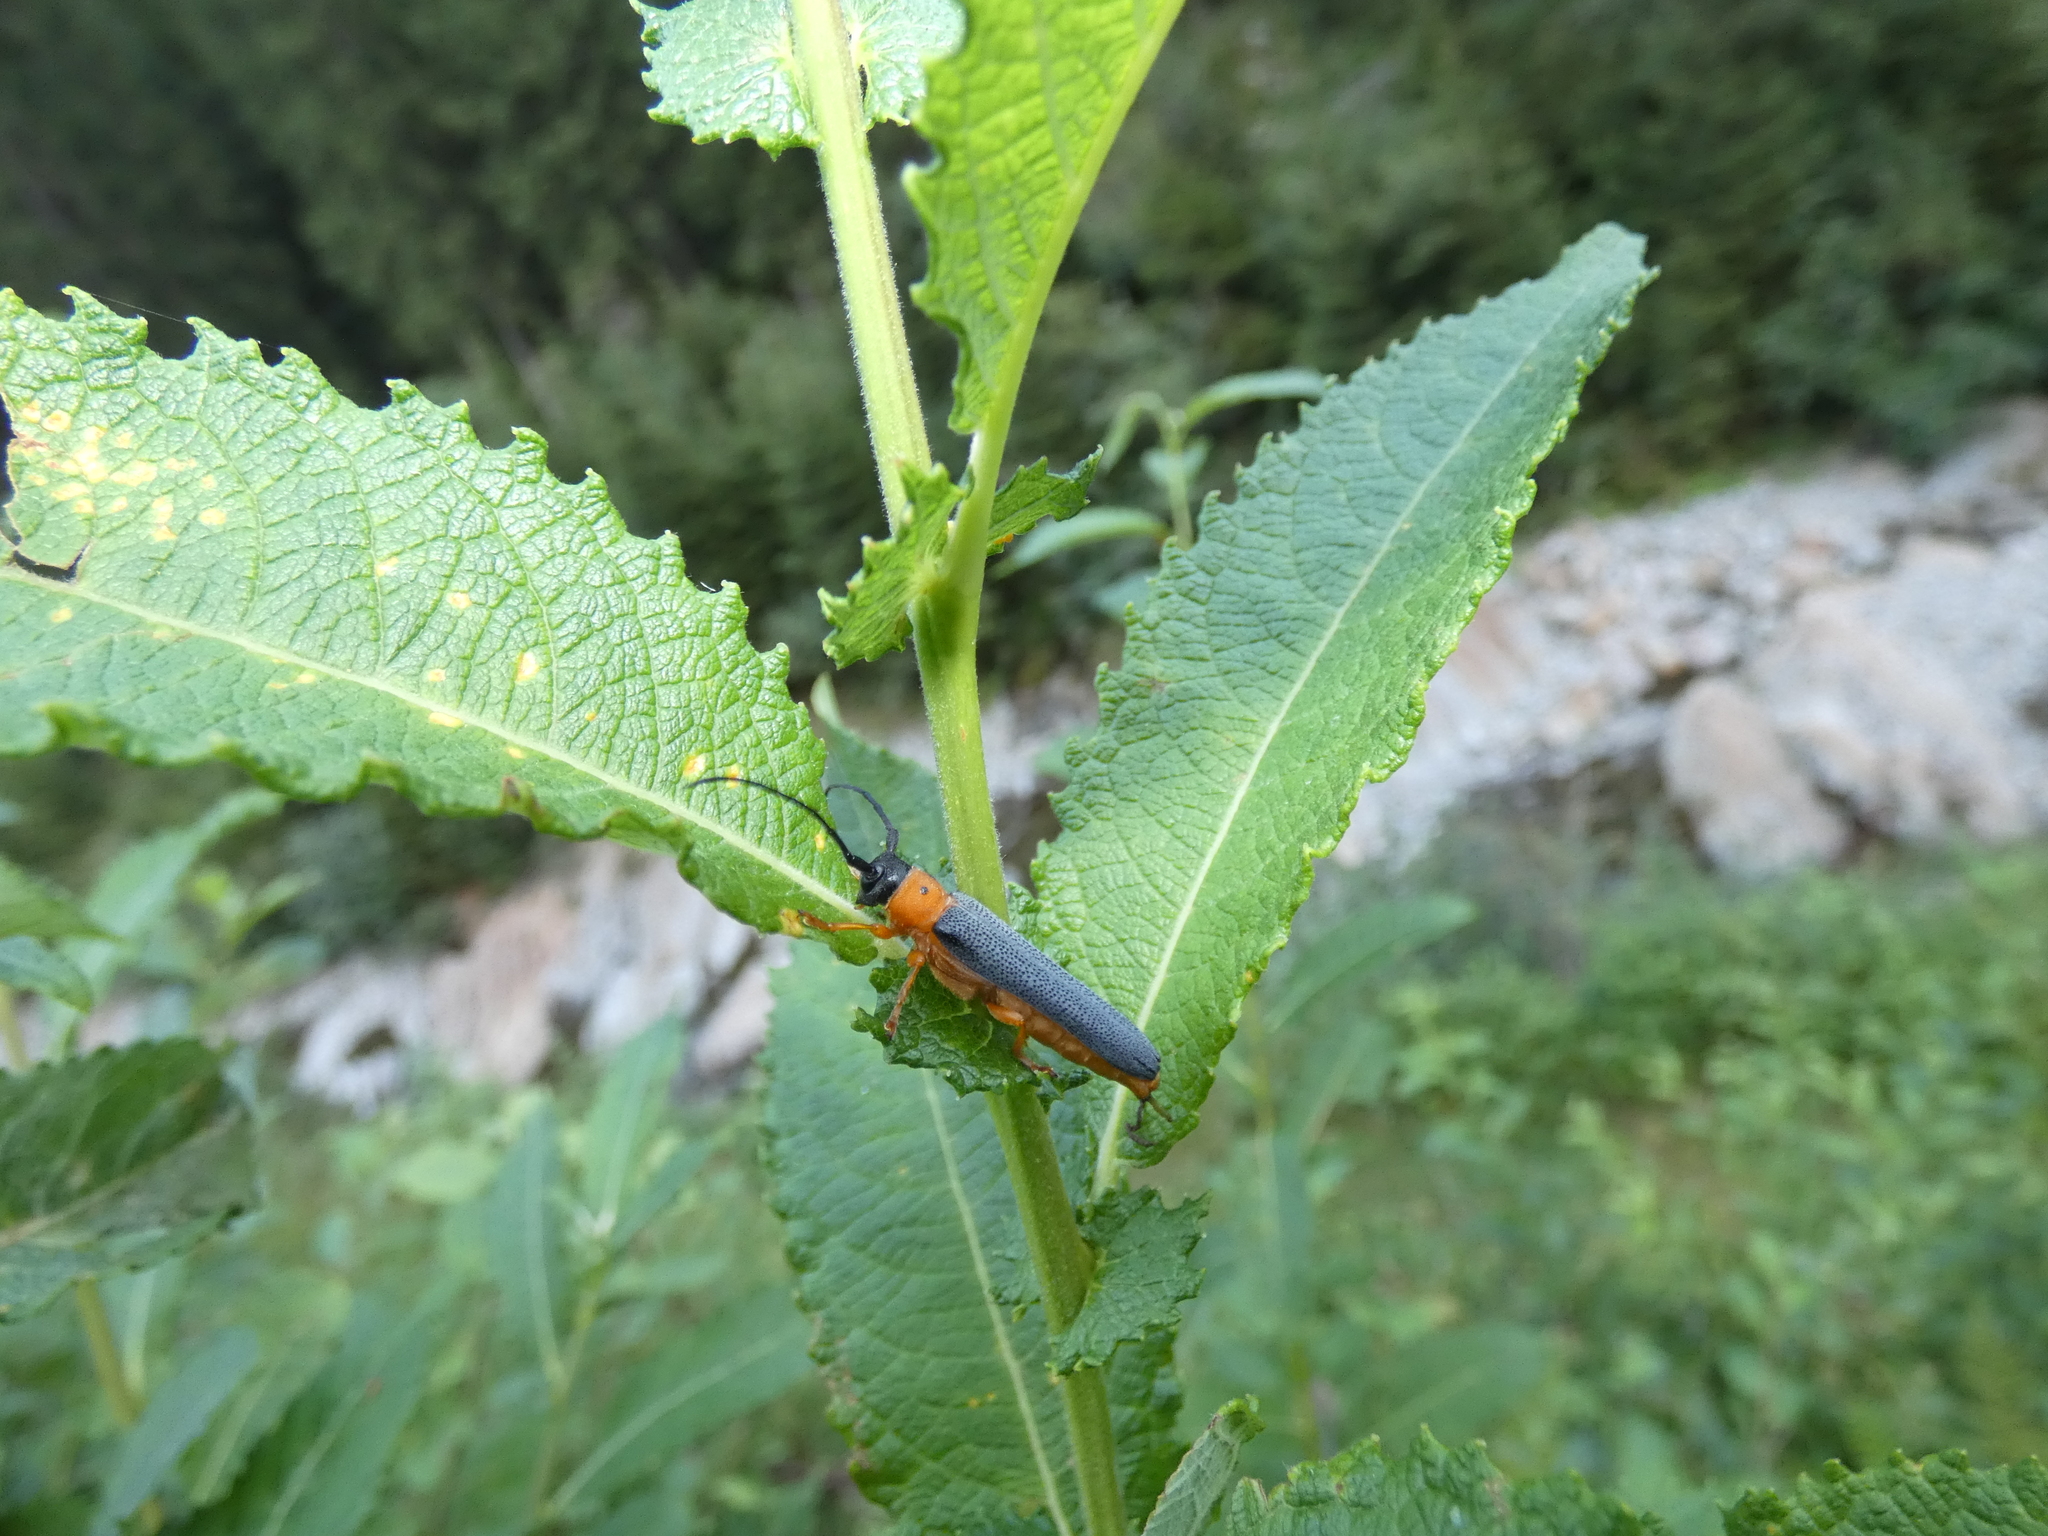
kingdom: Animalia
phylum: Arthropoda
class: Insecta
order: Coleoptera
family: Cerambycidae
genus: Oberea
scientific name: Oberea oculata
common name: Eyed longhorn beetle
